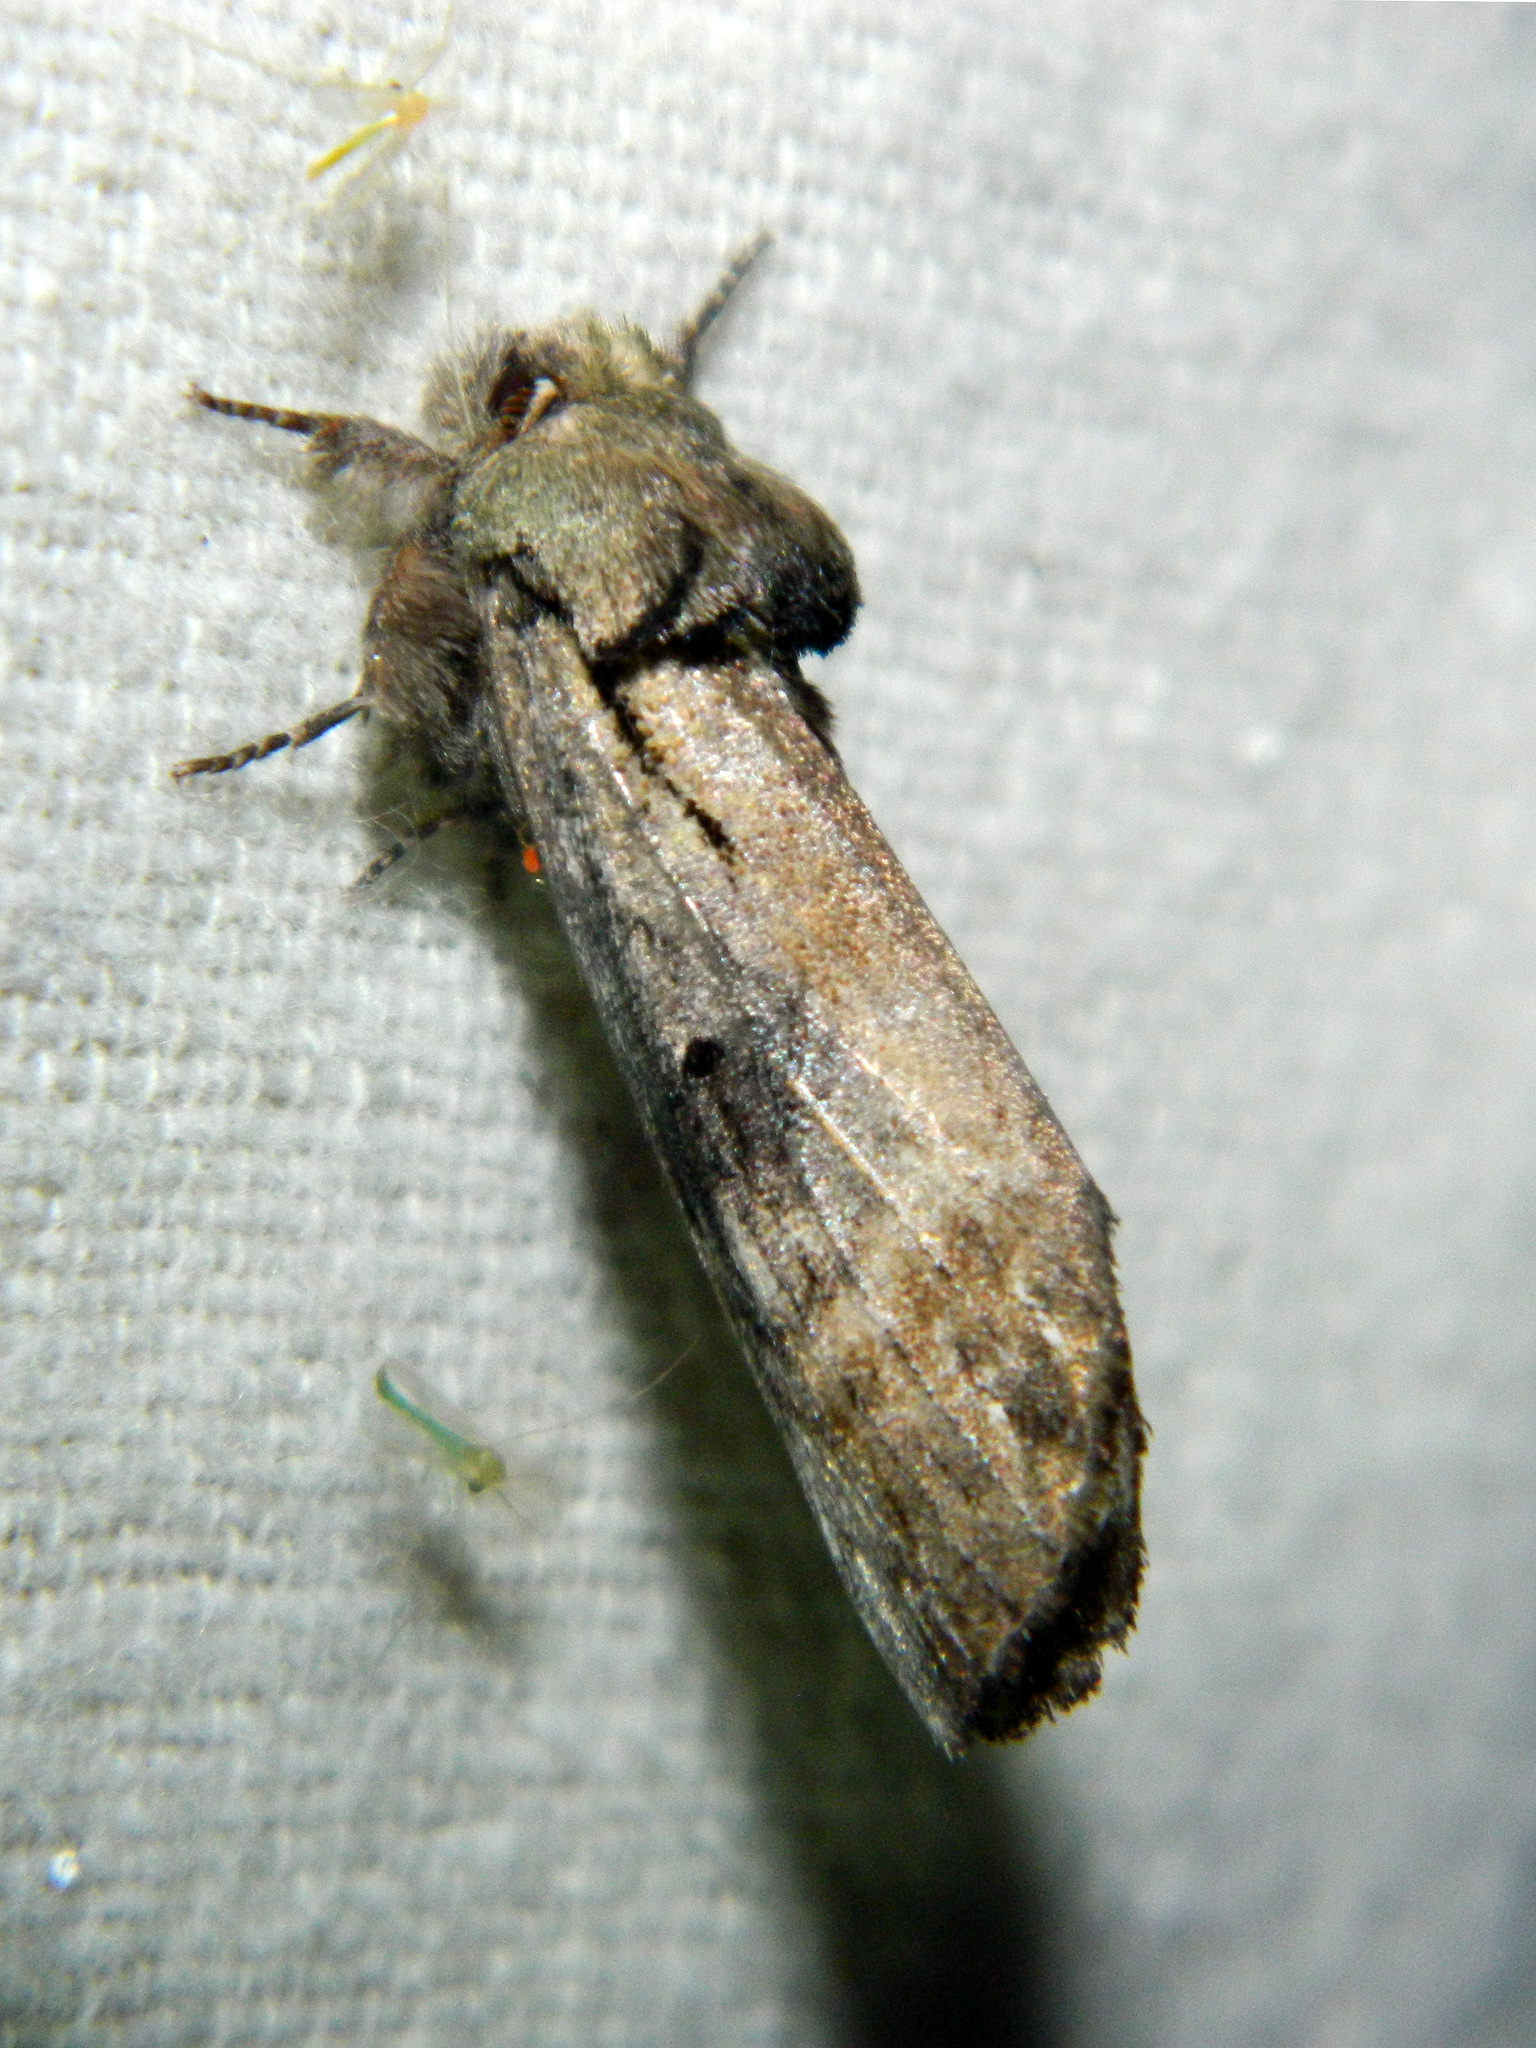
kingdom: Animalia
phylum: Arthropoda
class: Insecta
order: Lepidoptera
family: Notodontidae
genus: Schizura
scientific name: Schizura
